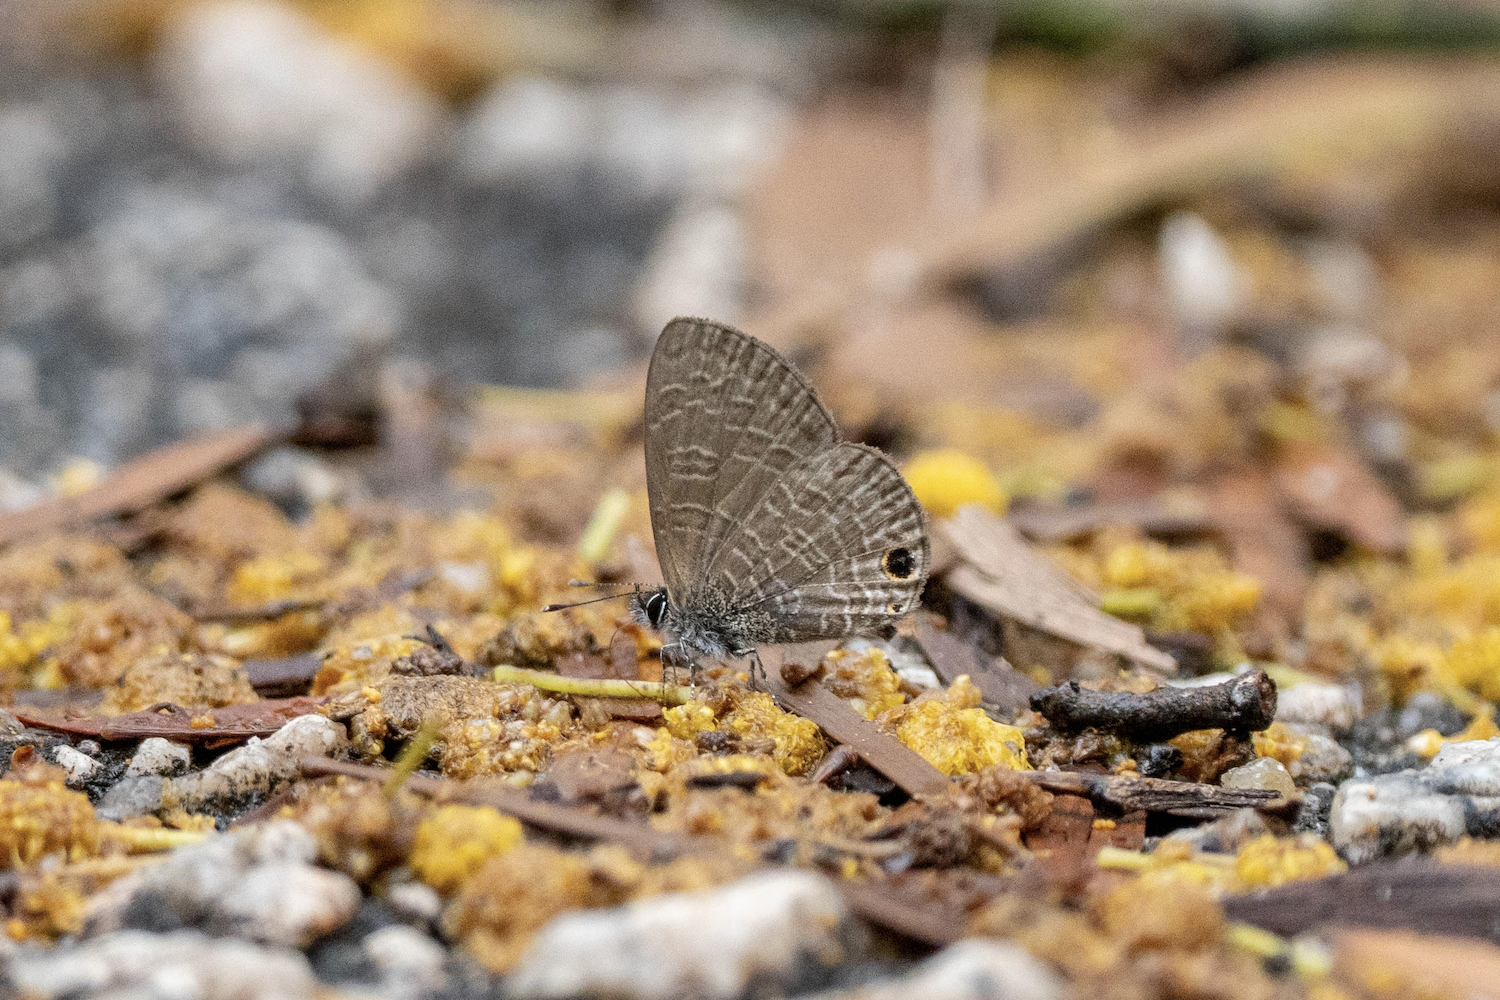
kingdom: Animalia
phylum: Arthropoda
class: Insecta
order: Lepidoptera
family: Lycaenidae
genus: Prosotas
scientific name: Prosotas dubiosa
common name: Tailless lineblue
